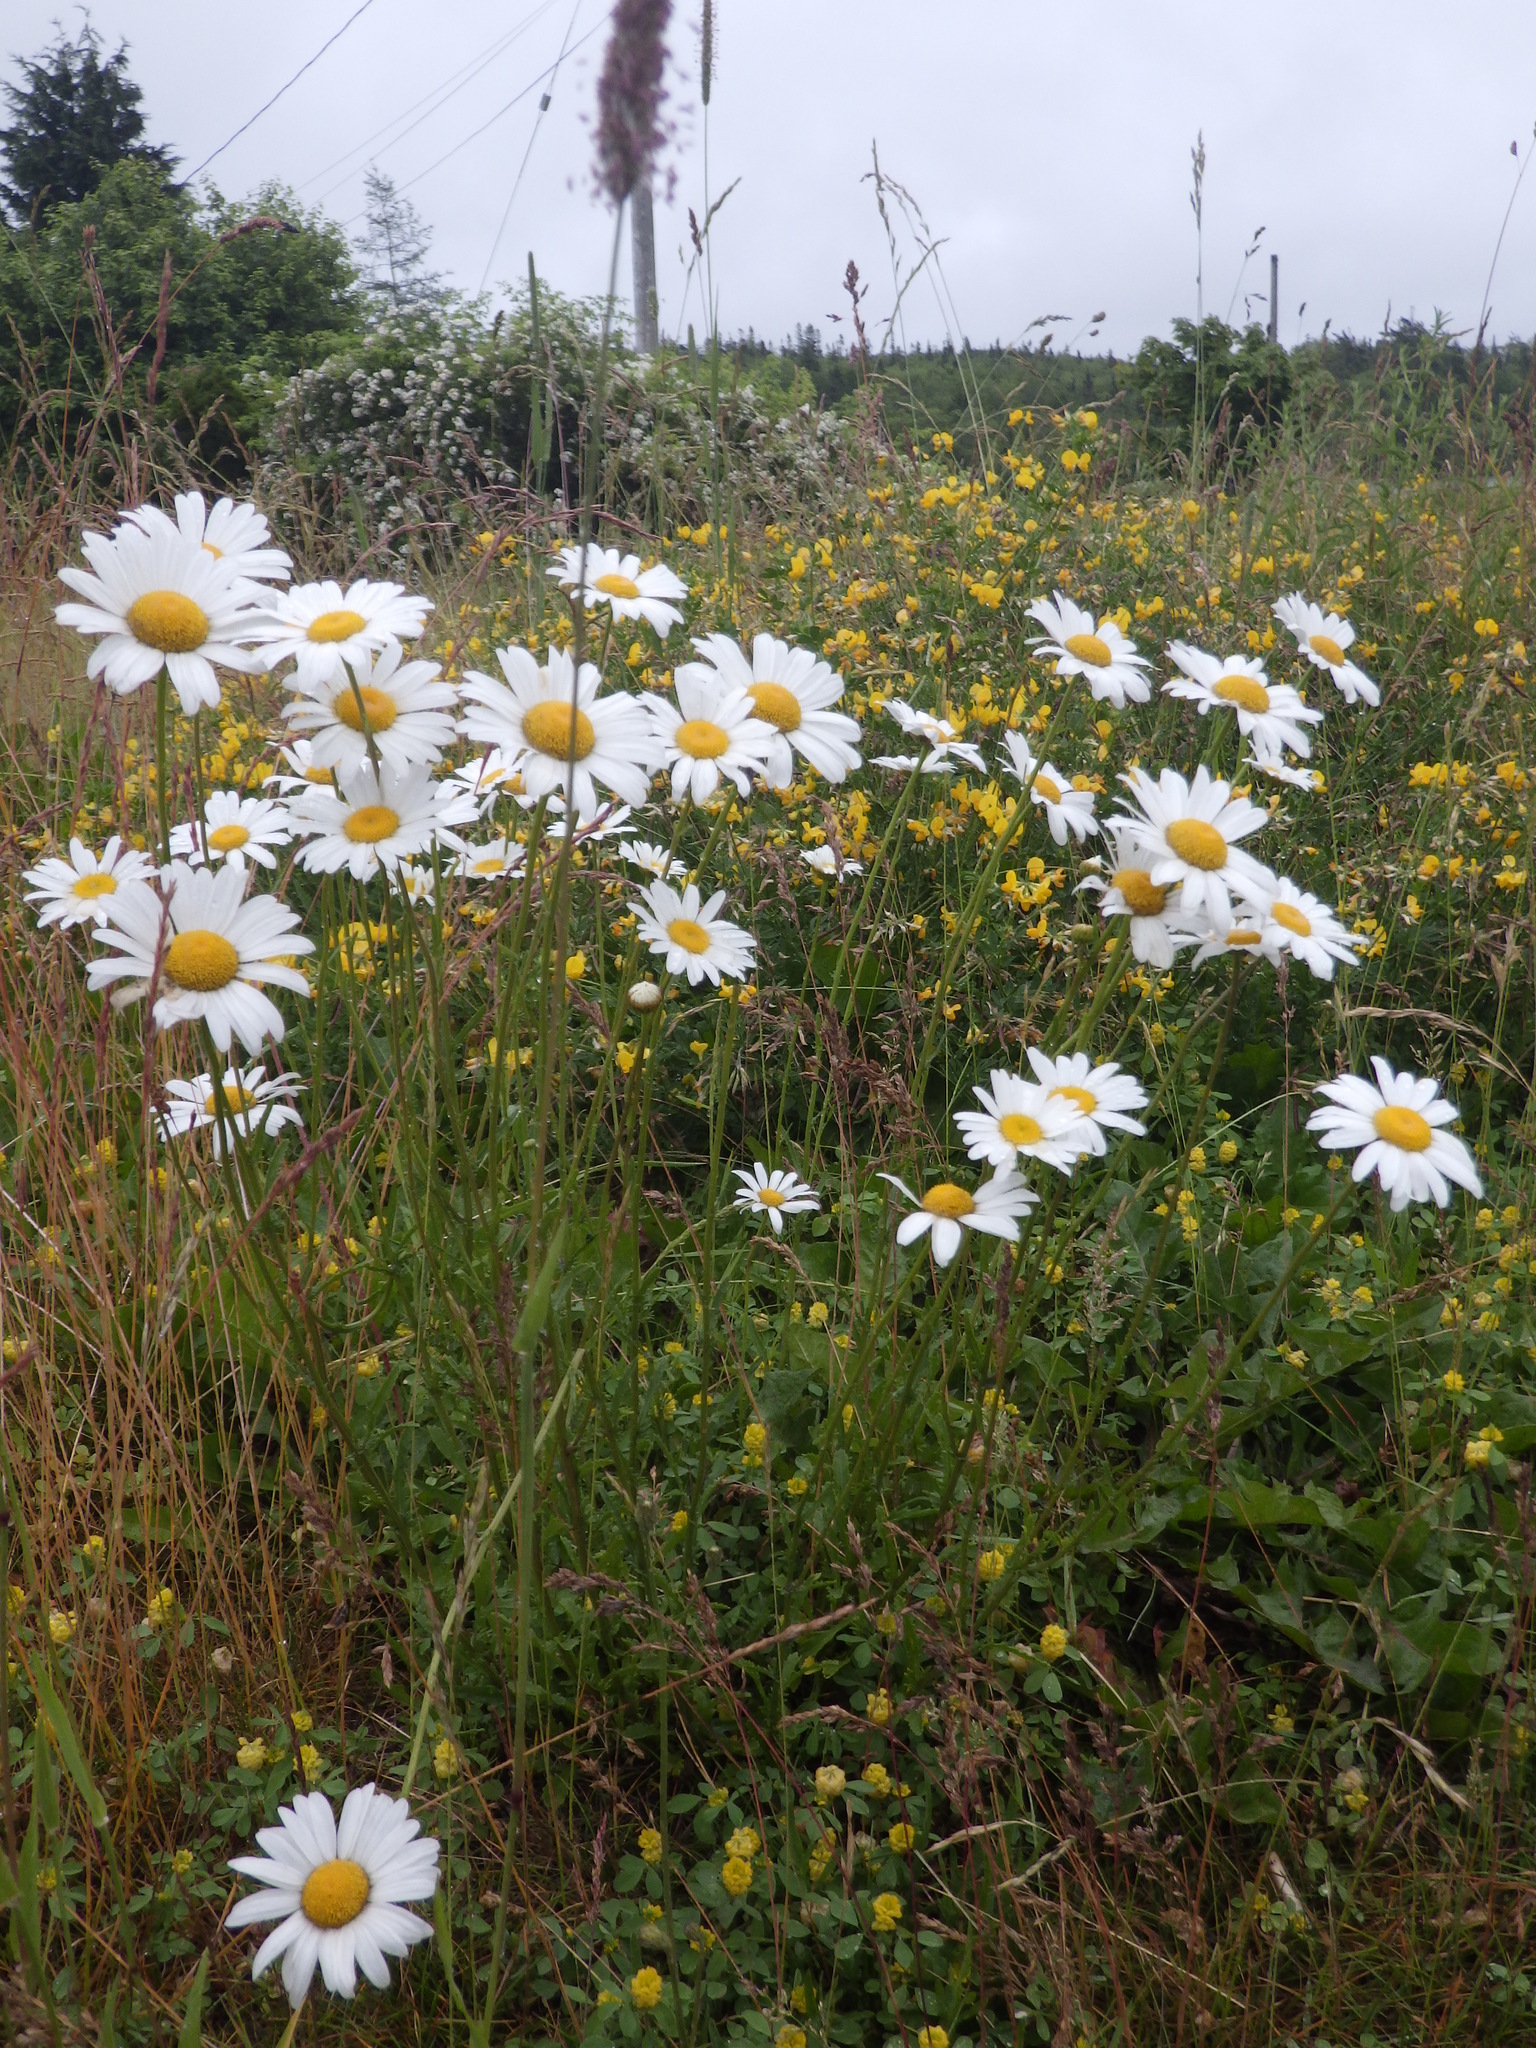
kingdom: Plantae
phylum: Tracheophyta
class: Magnoliopsida
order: Asterales
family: Asteraceae
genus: Leucanthemum
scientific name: Leucanthemum vulgare
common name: Oxeye daisy
